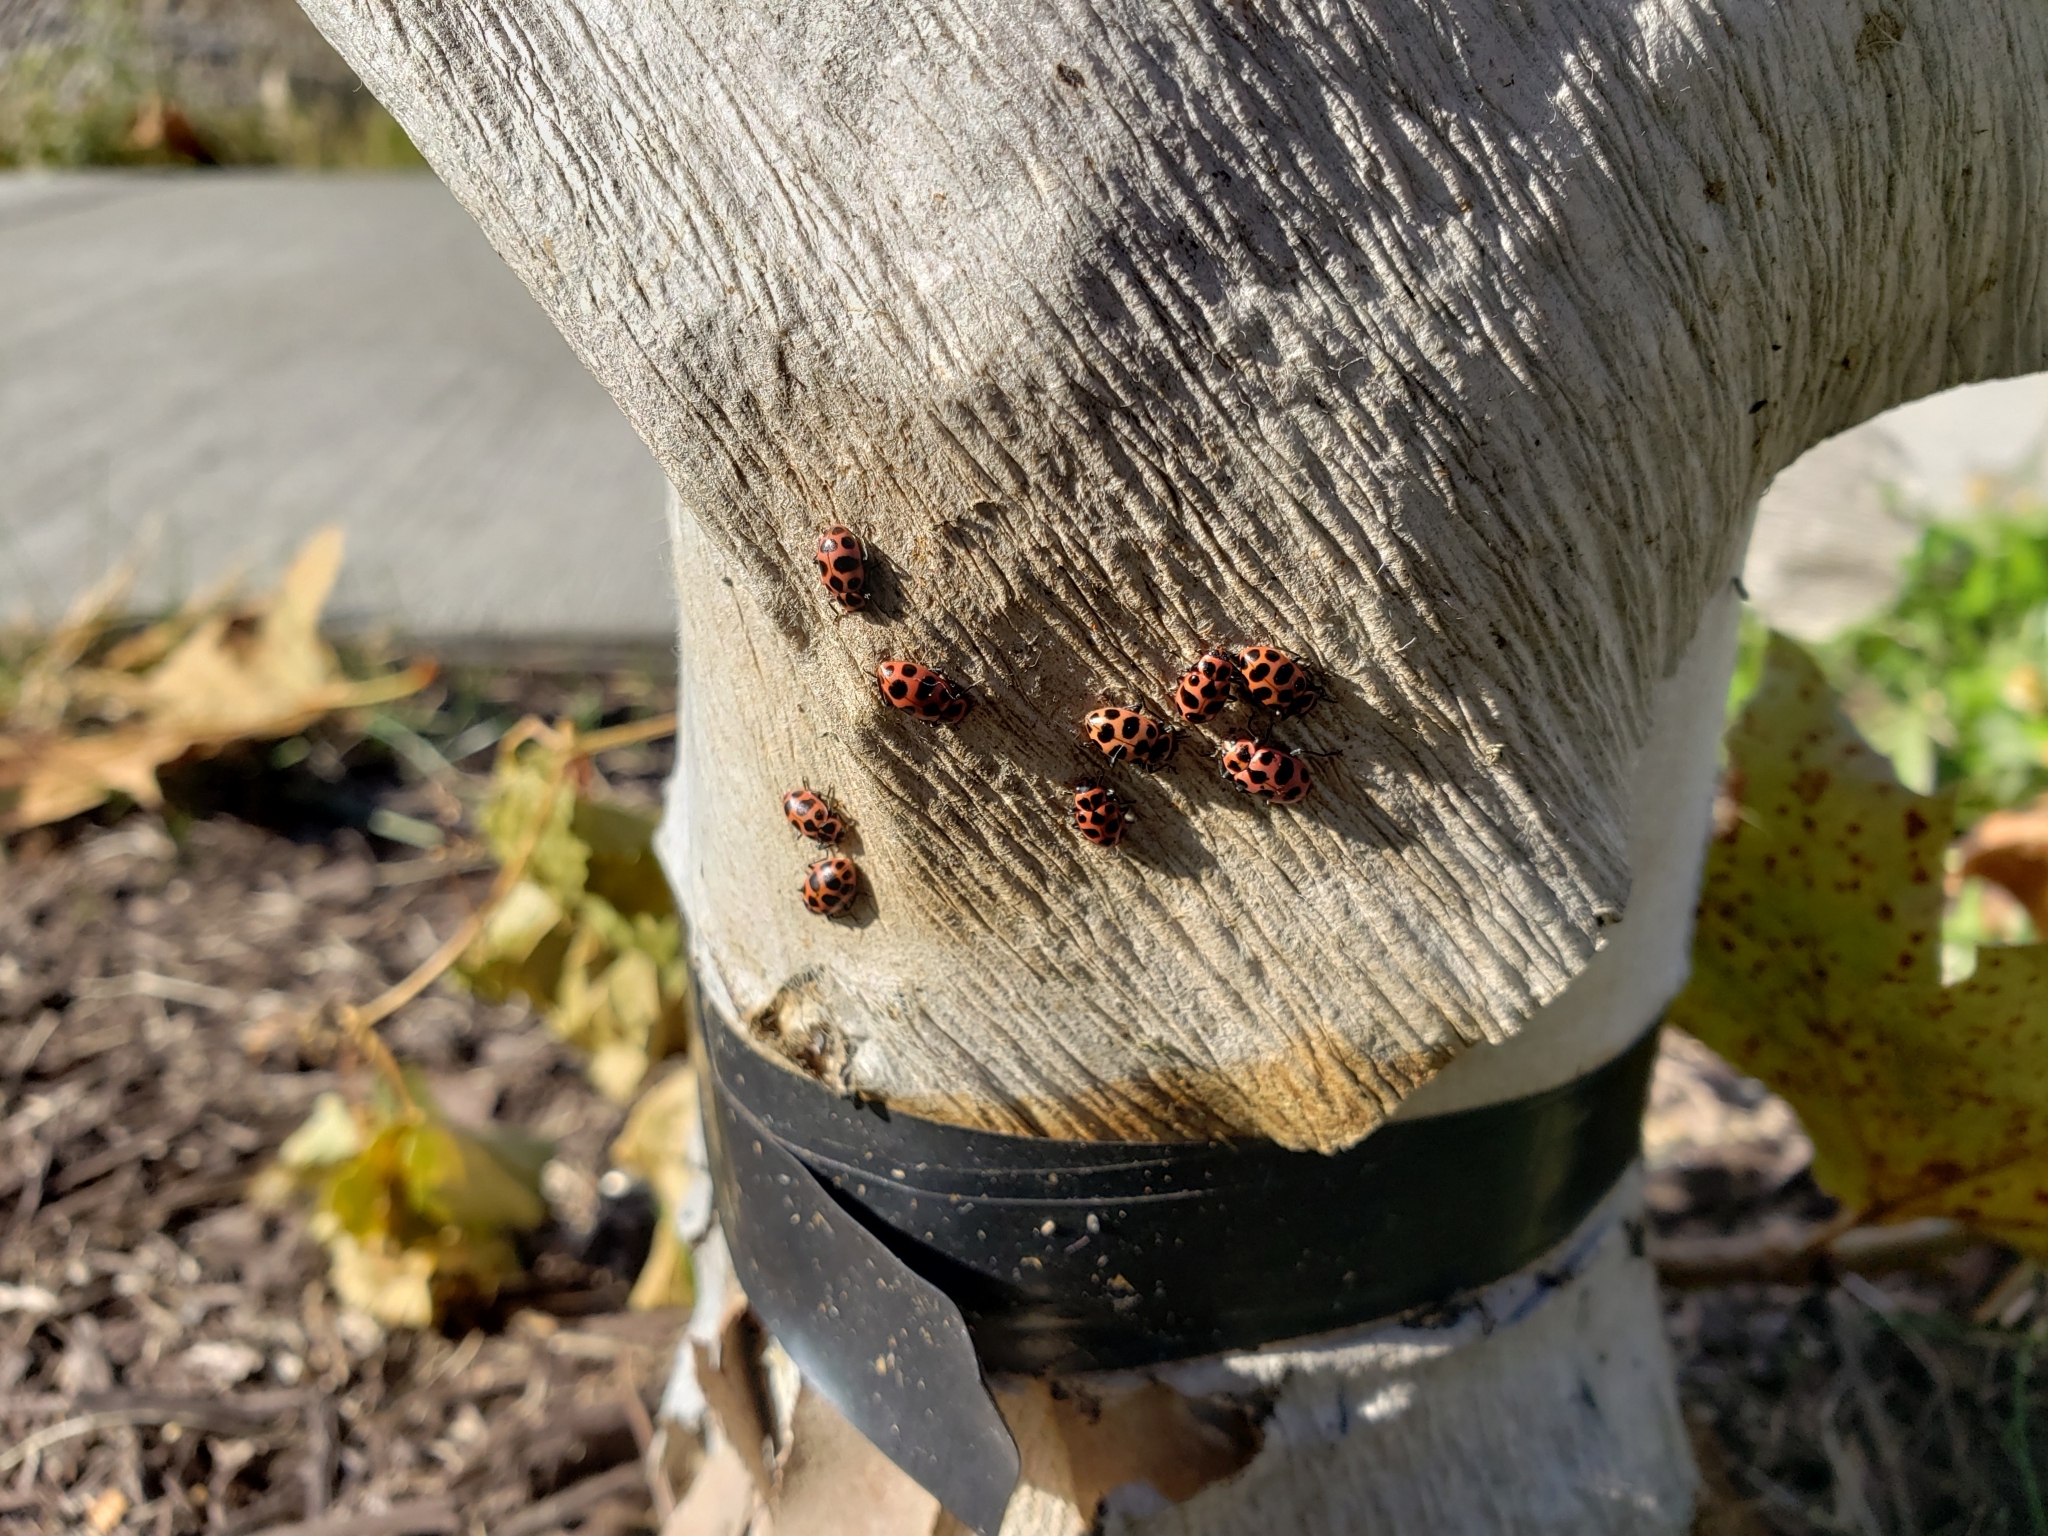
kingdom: Animalia
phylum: Arthropoda
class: Insecta
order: Coleoptera
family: Coccinellidae
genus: Coleomegilla
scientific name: Coleomegilla maculata
